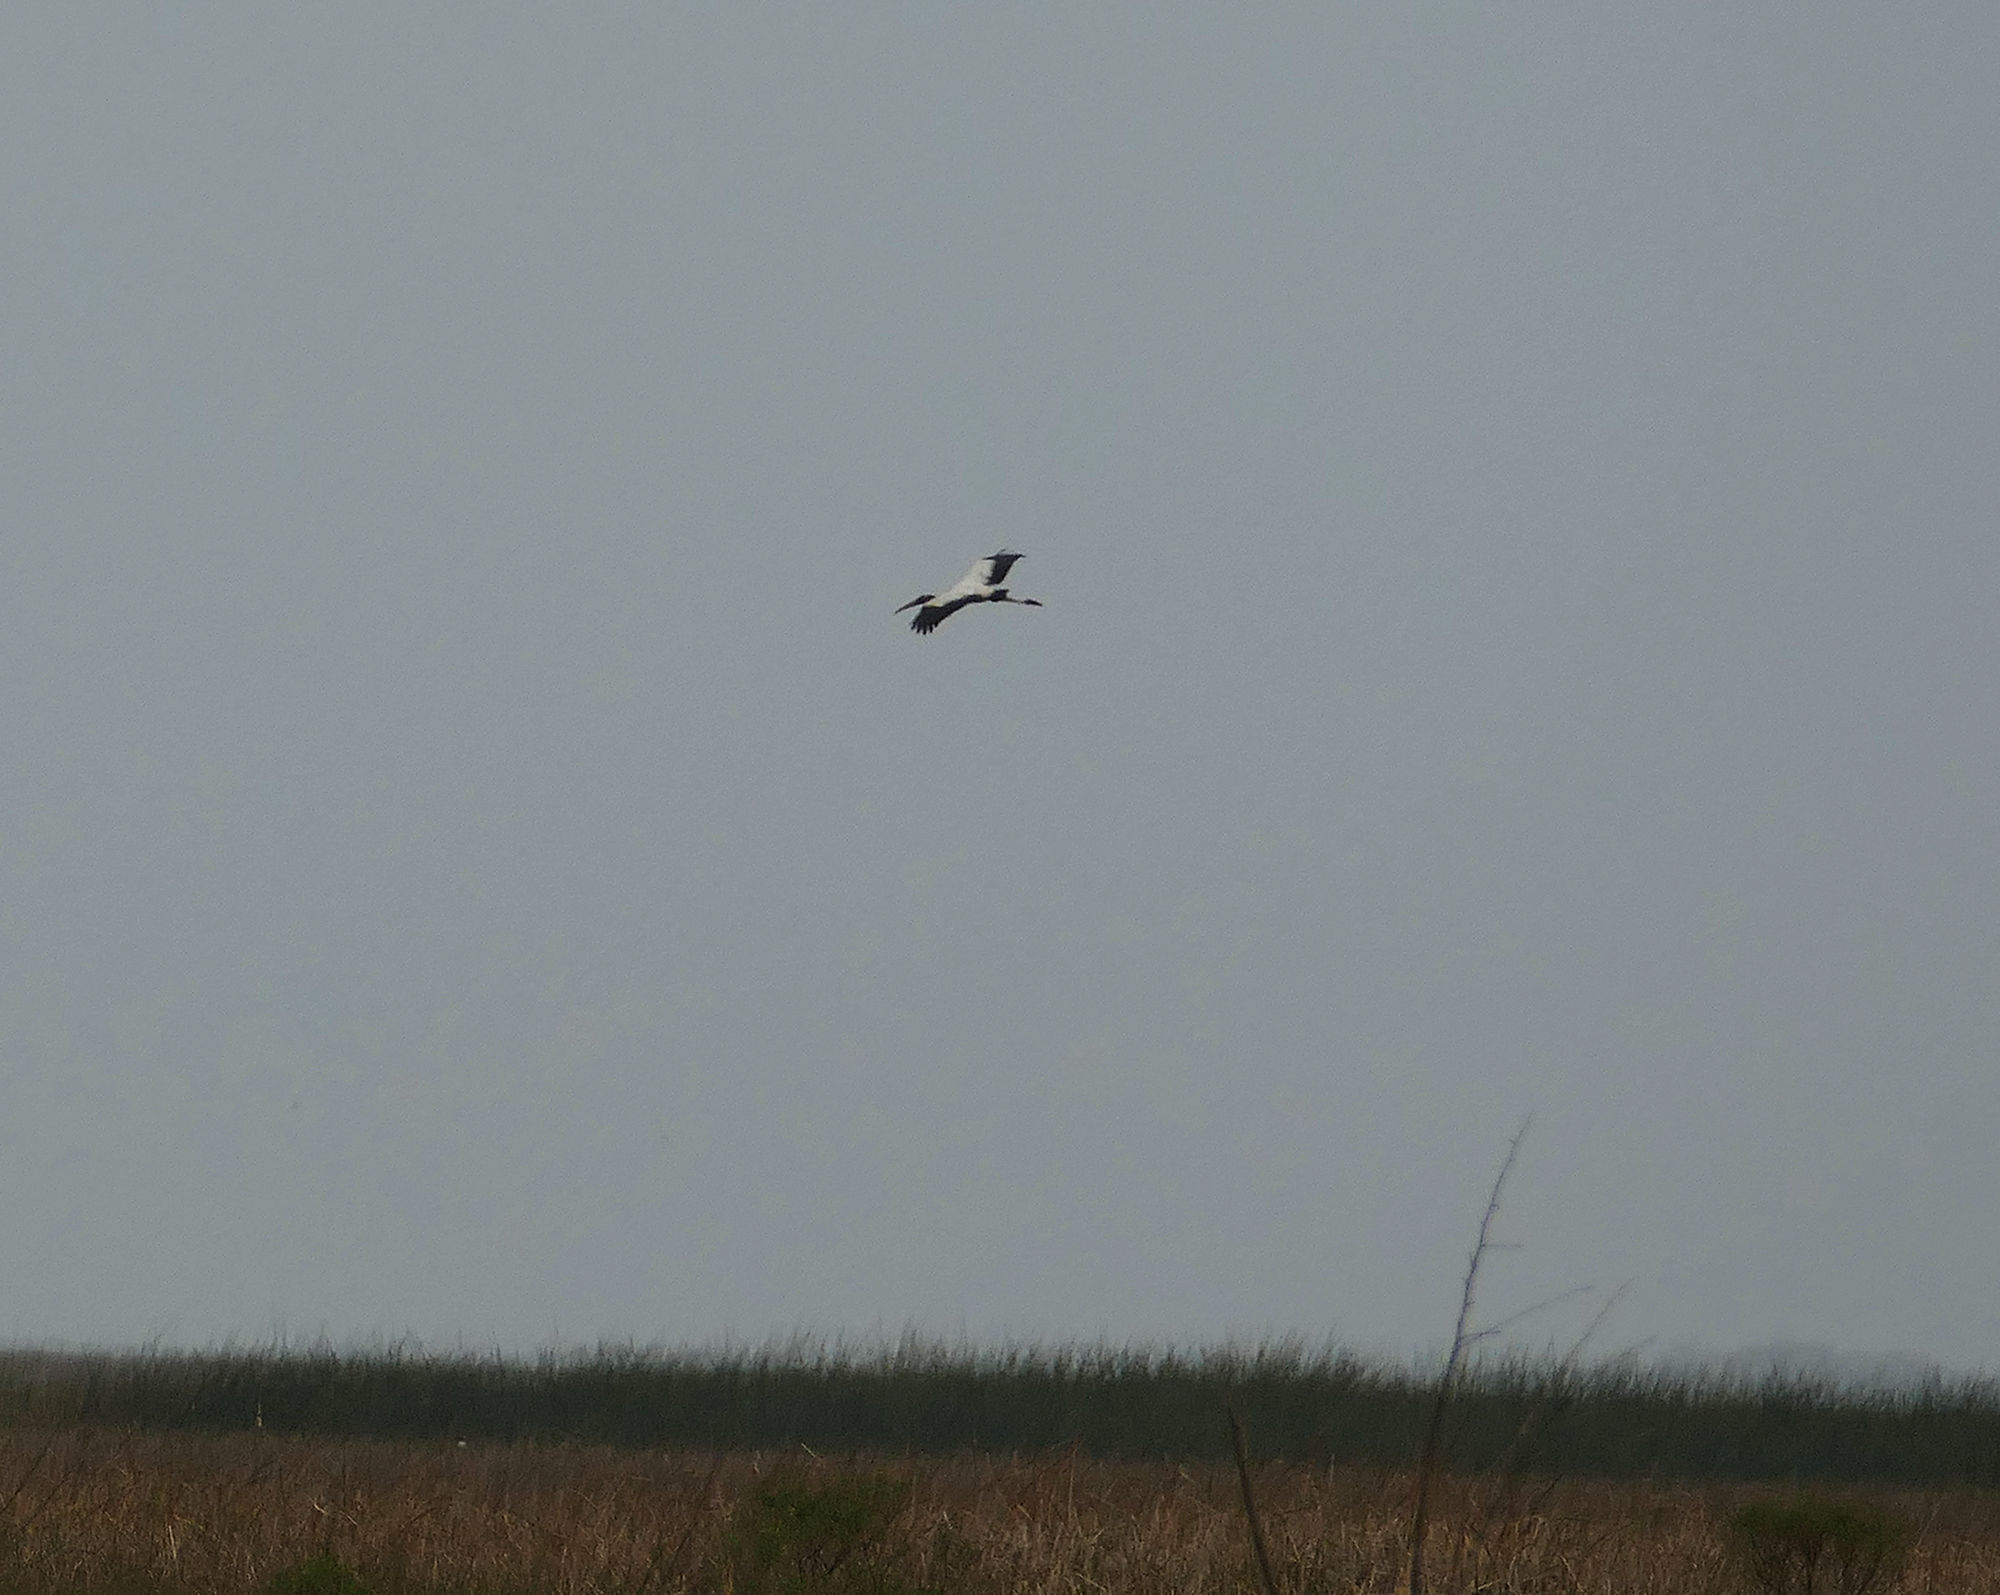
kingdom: Animalia
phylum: Chordata
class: Aves
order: Ciconiiformes
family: Ciconiidae
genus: Mycteria
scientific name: Mycteria americana
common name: Wood stork
